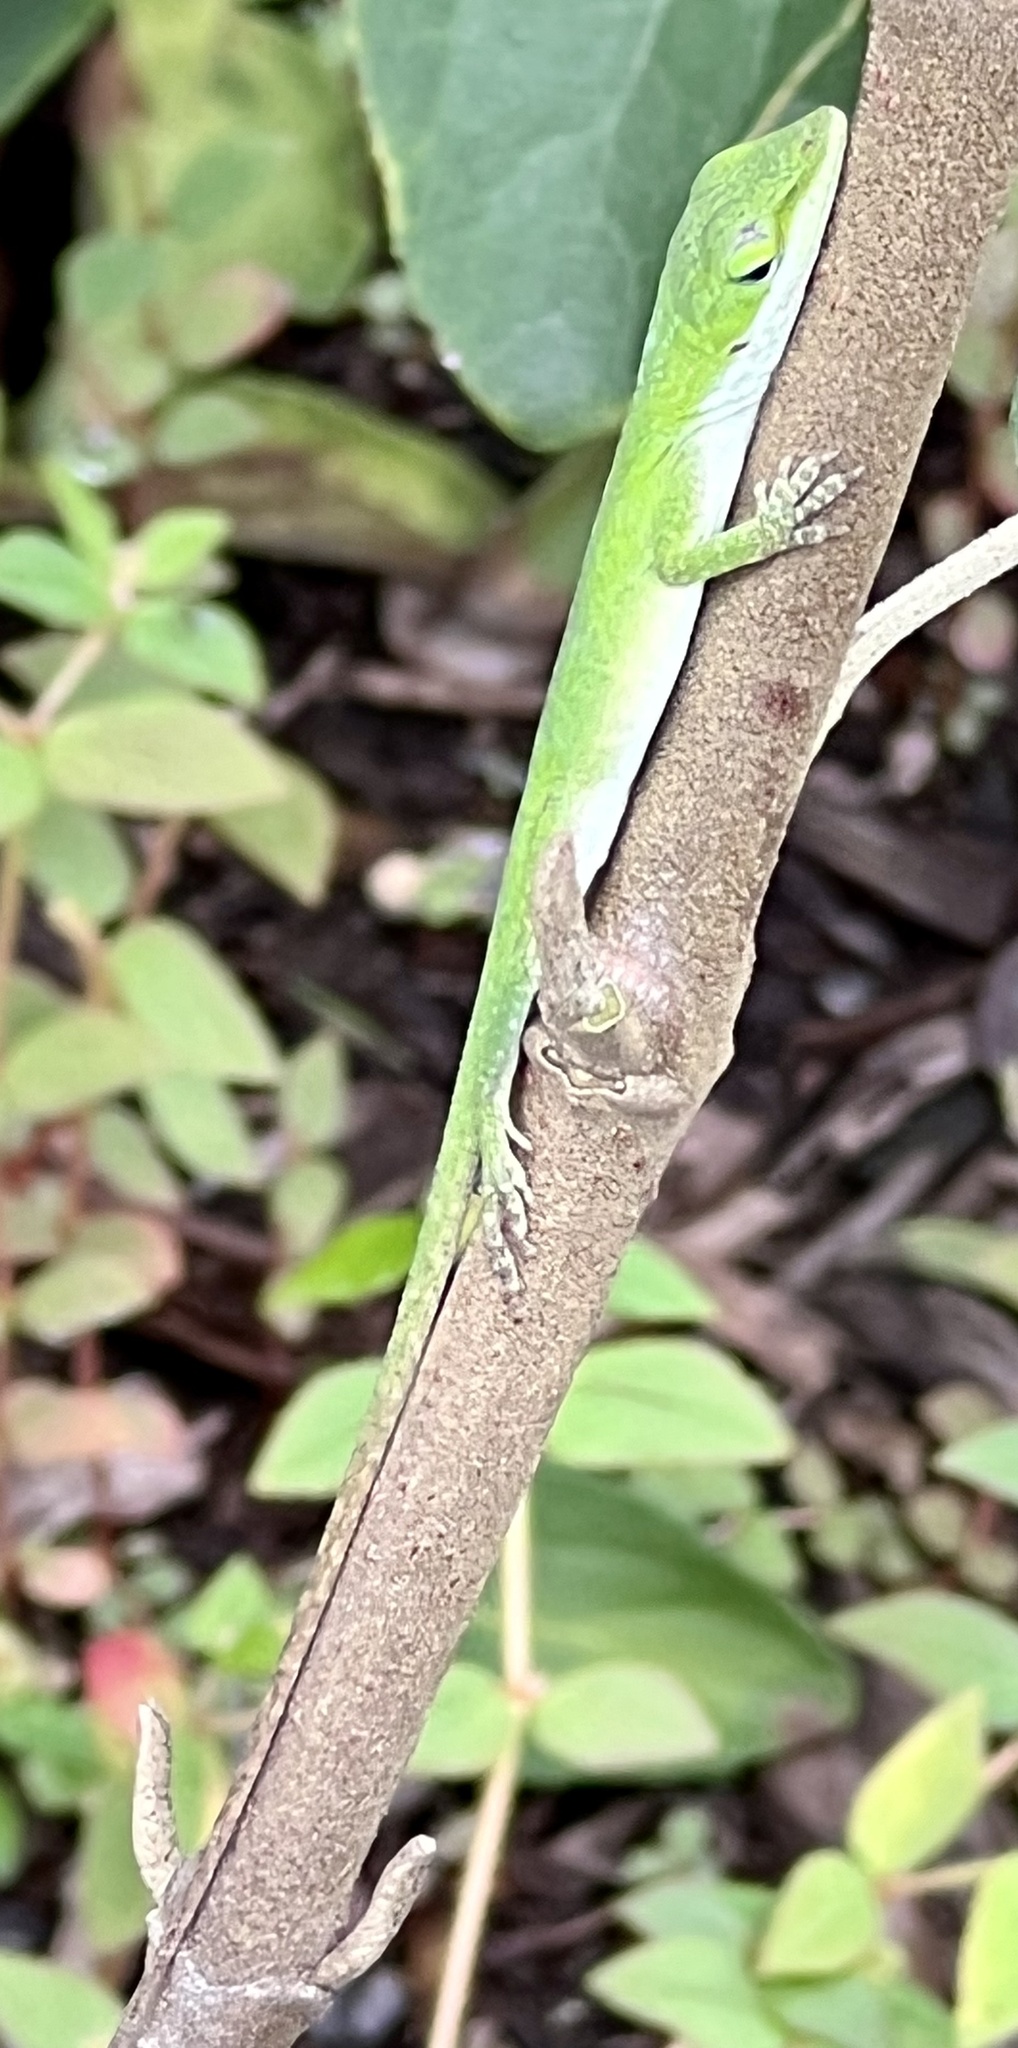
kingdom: Animalia
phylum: Chordata
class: Squamata
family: Dactyloidae
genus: Anolis
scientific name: Anolis carolinensis
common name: Green anole
